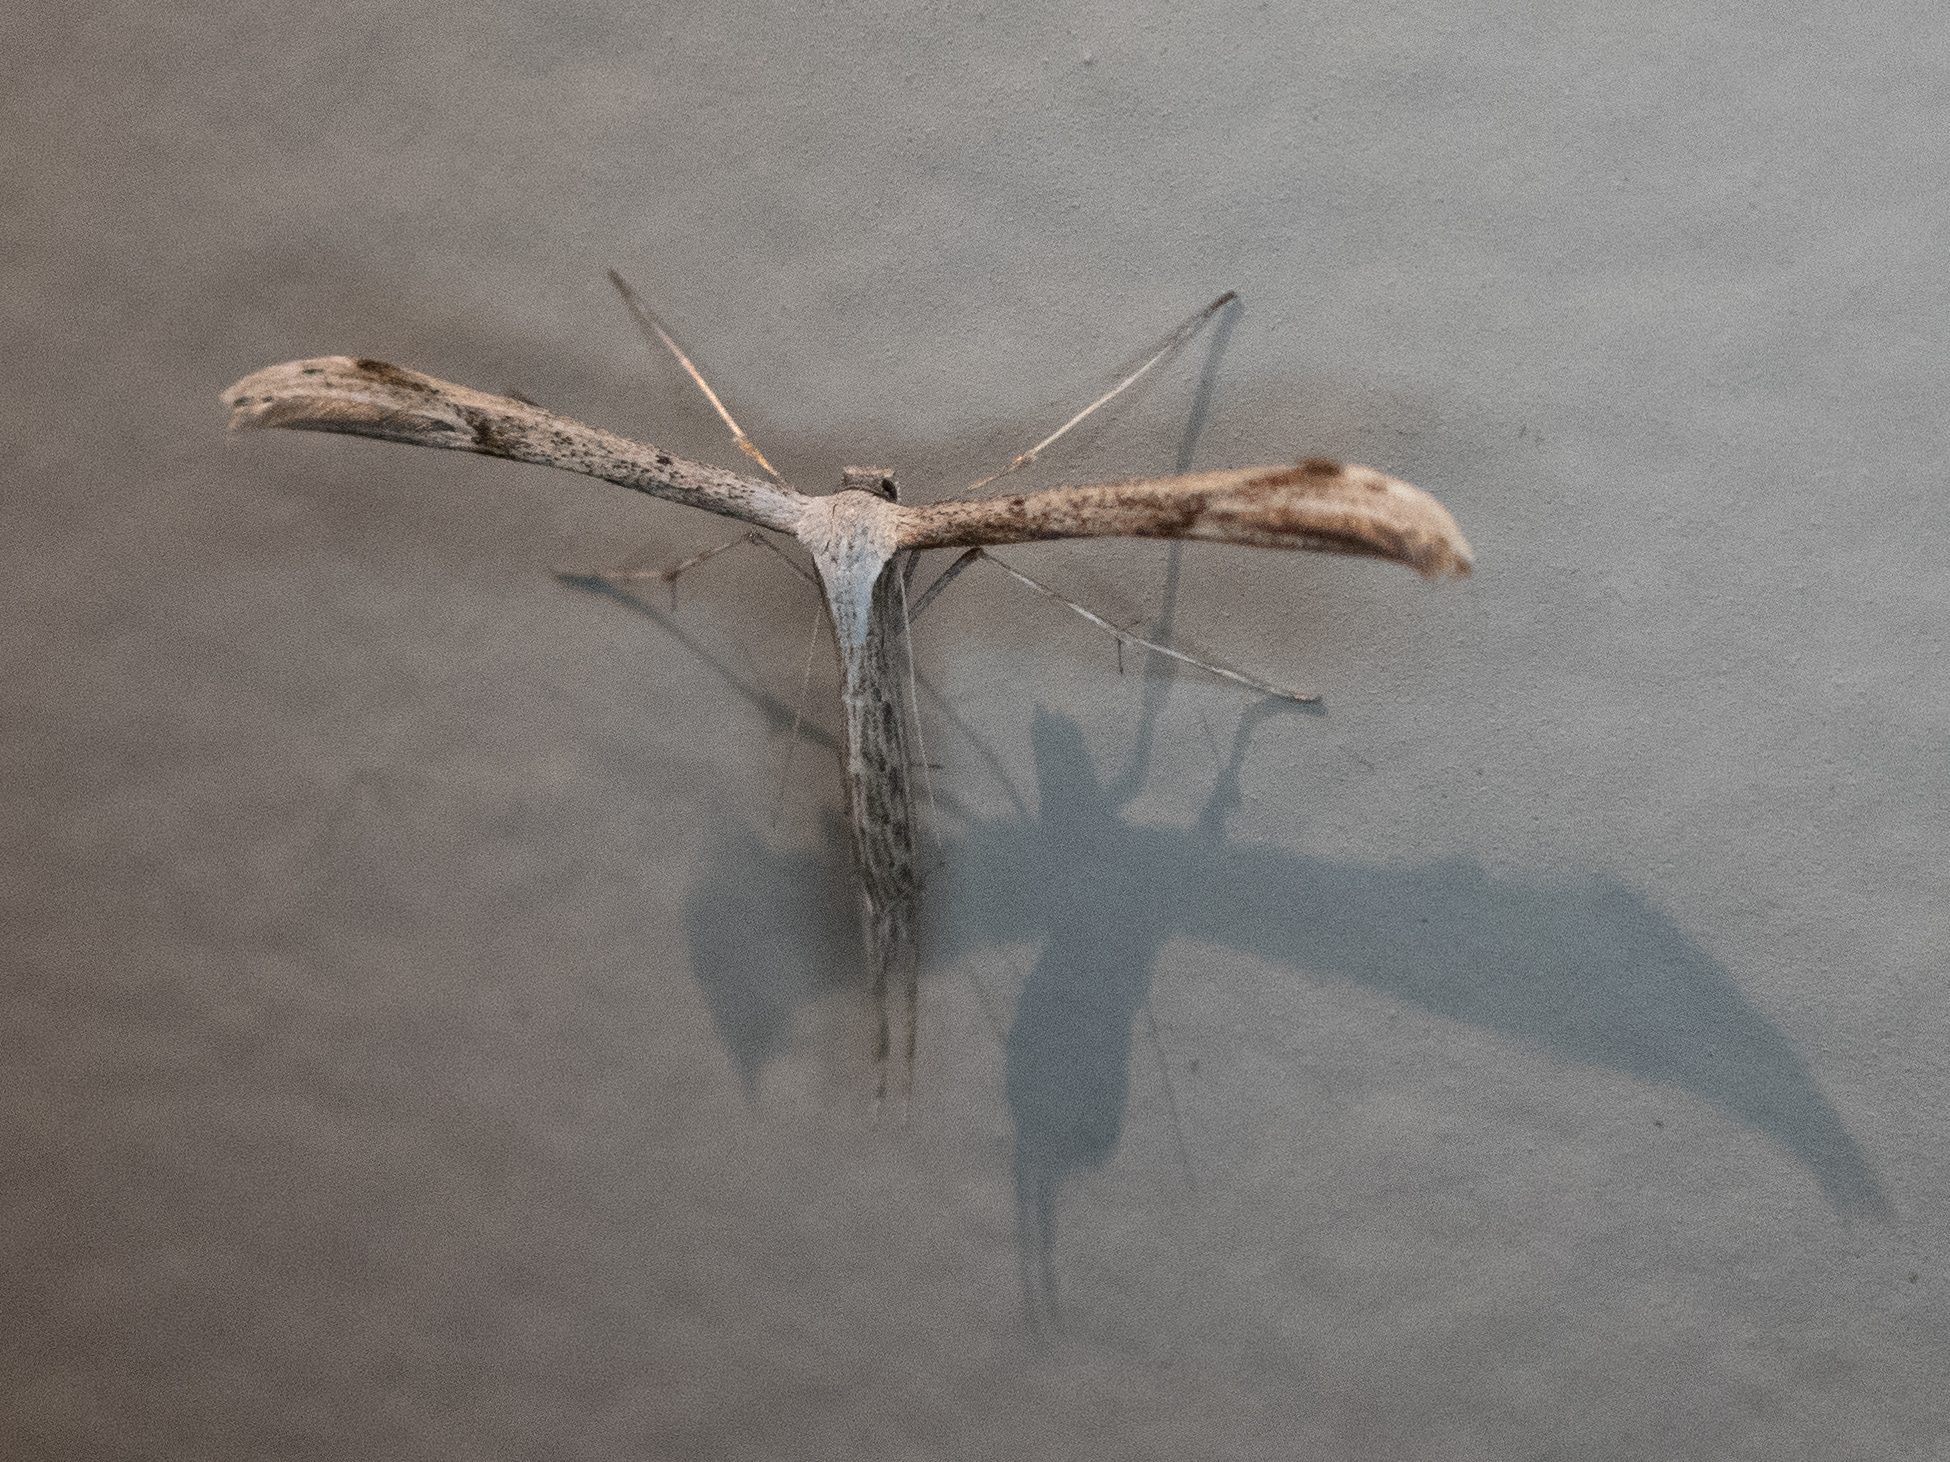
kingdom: Animalia
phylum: Arthropoda
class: Insecta
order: Lepidoptera
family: Pterophoridae
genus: Emmelina
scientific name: Emmelina monodactyla
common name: Common plume
